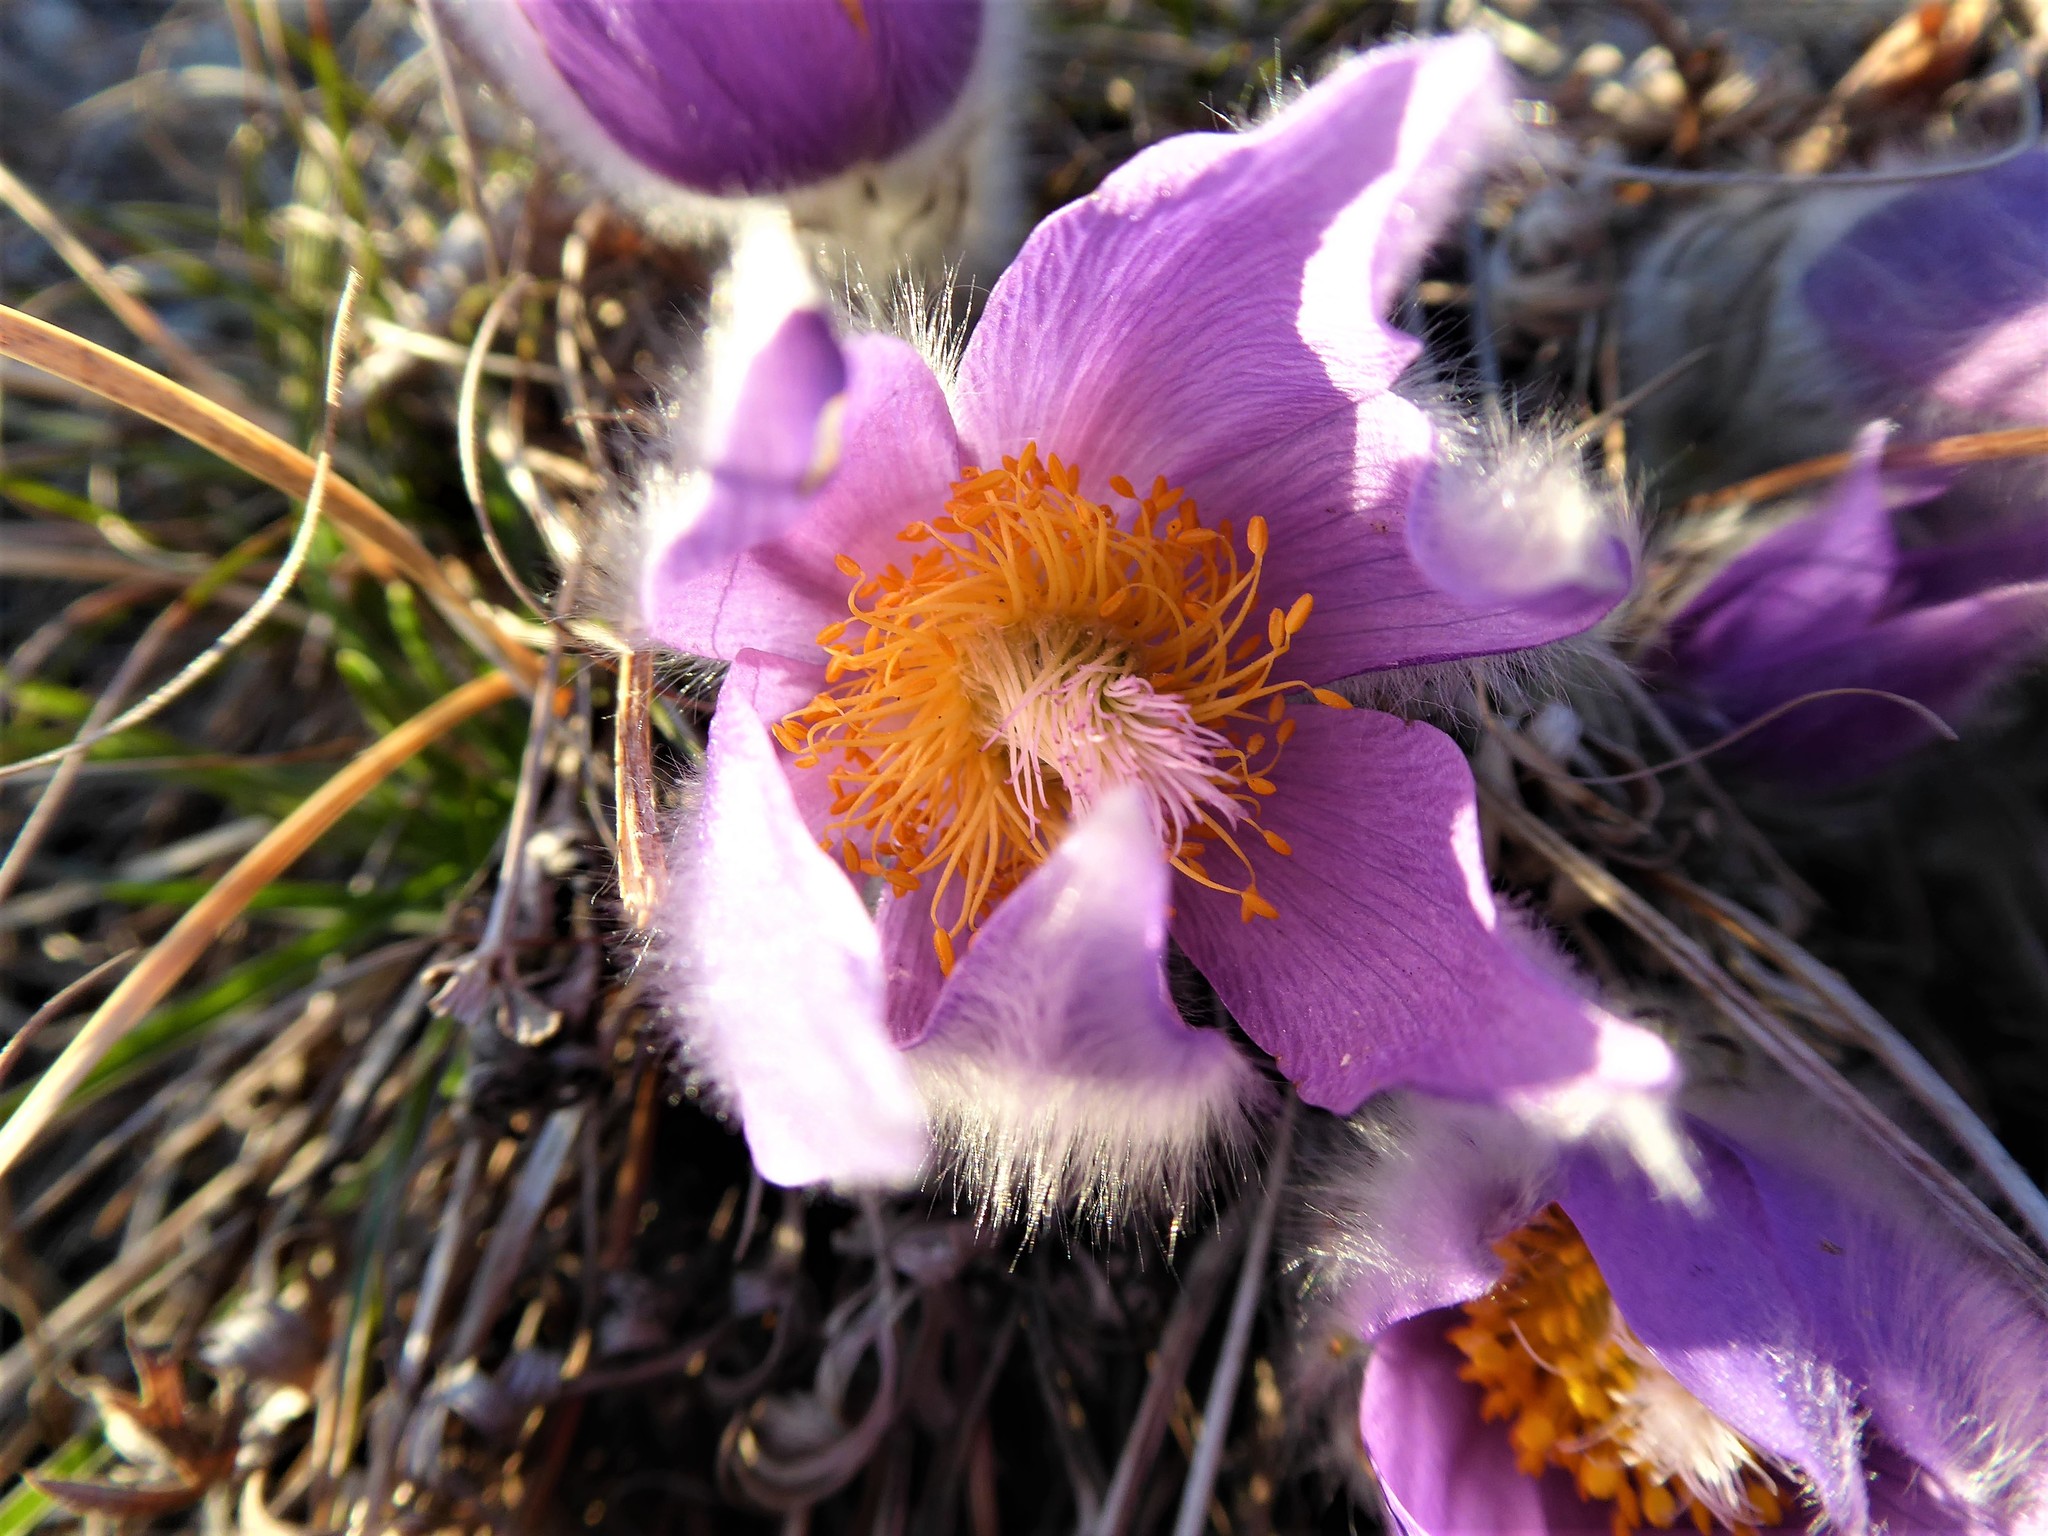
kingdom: Plantae
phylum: Tracheophyta
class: Magnoliopsida
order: Ranunculales
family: Ranunculaceae
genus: Pulsatilla
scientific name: Pulsatilla grandis
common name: Greater pasque flower
